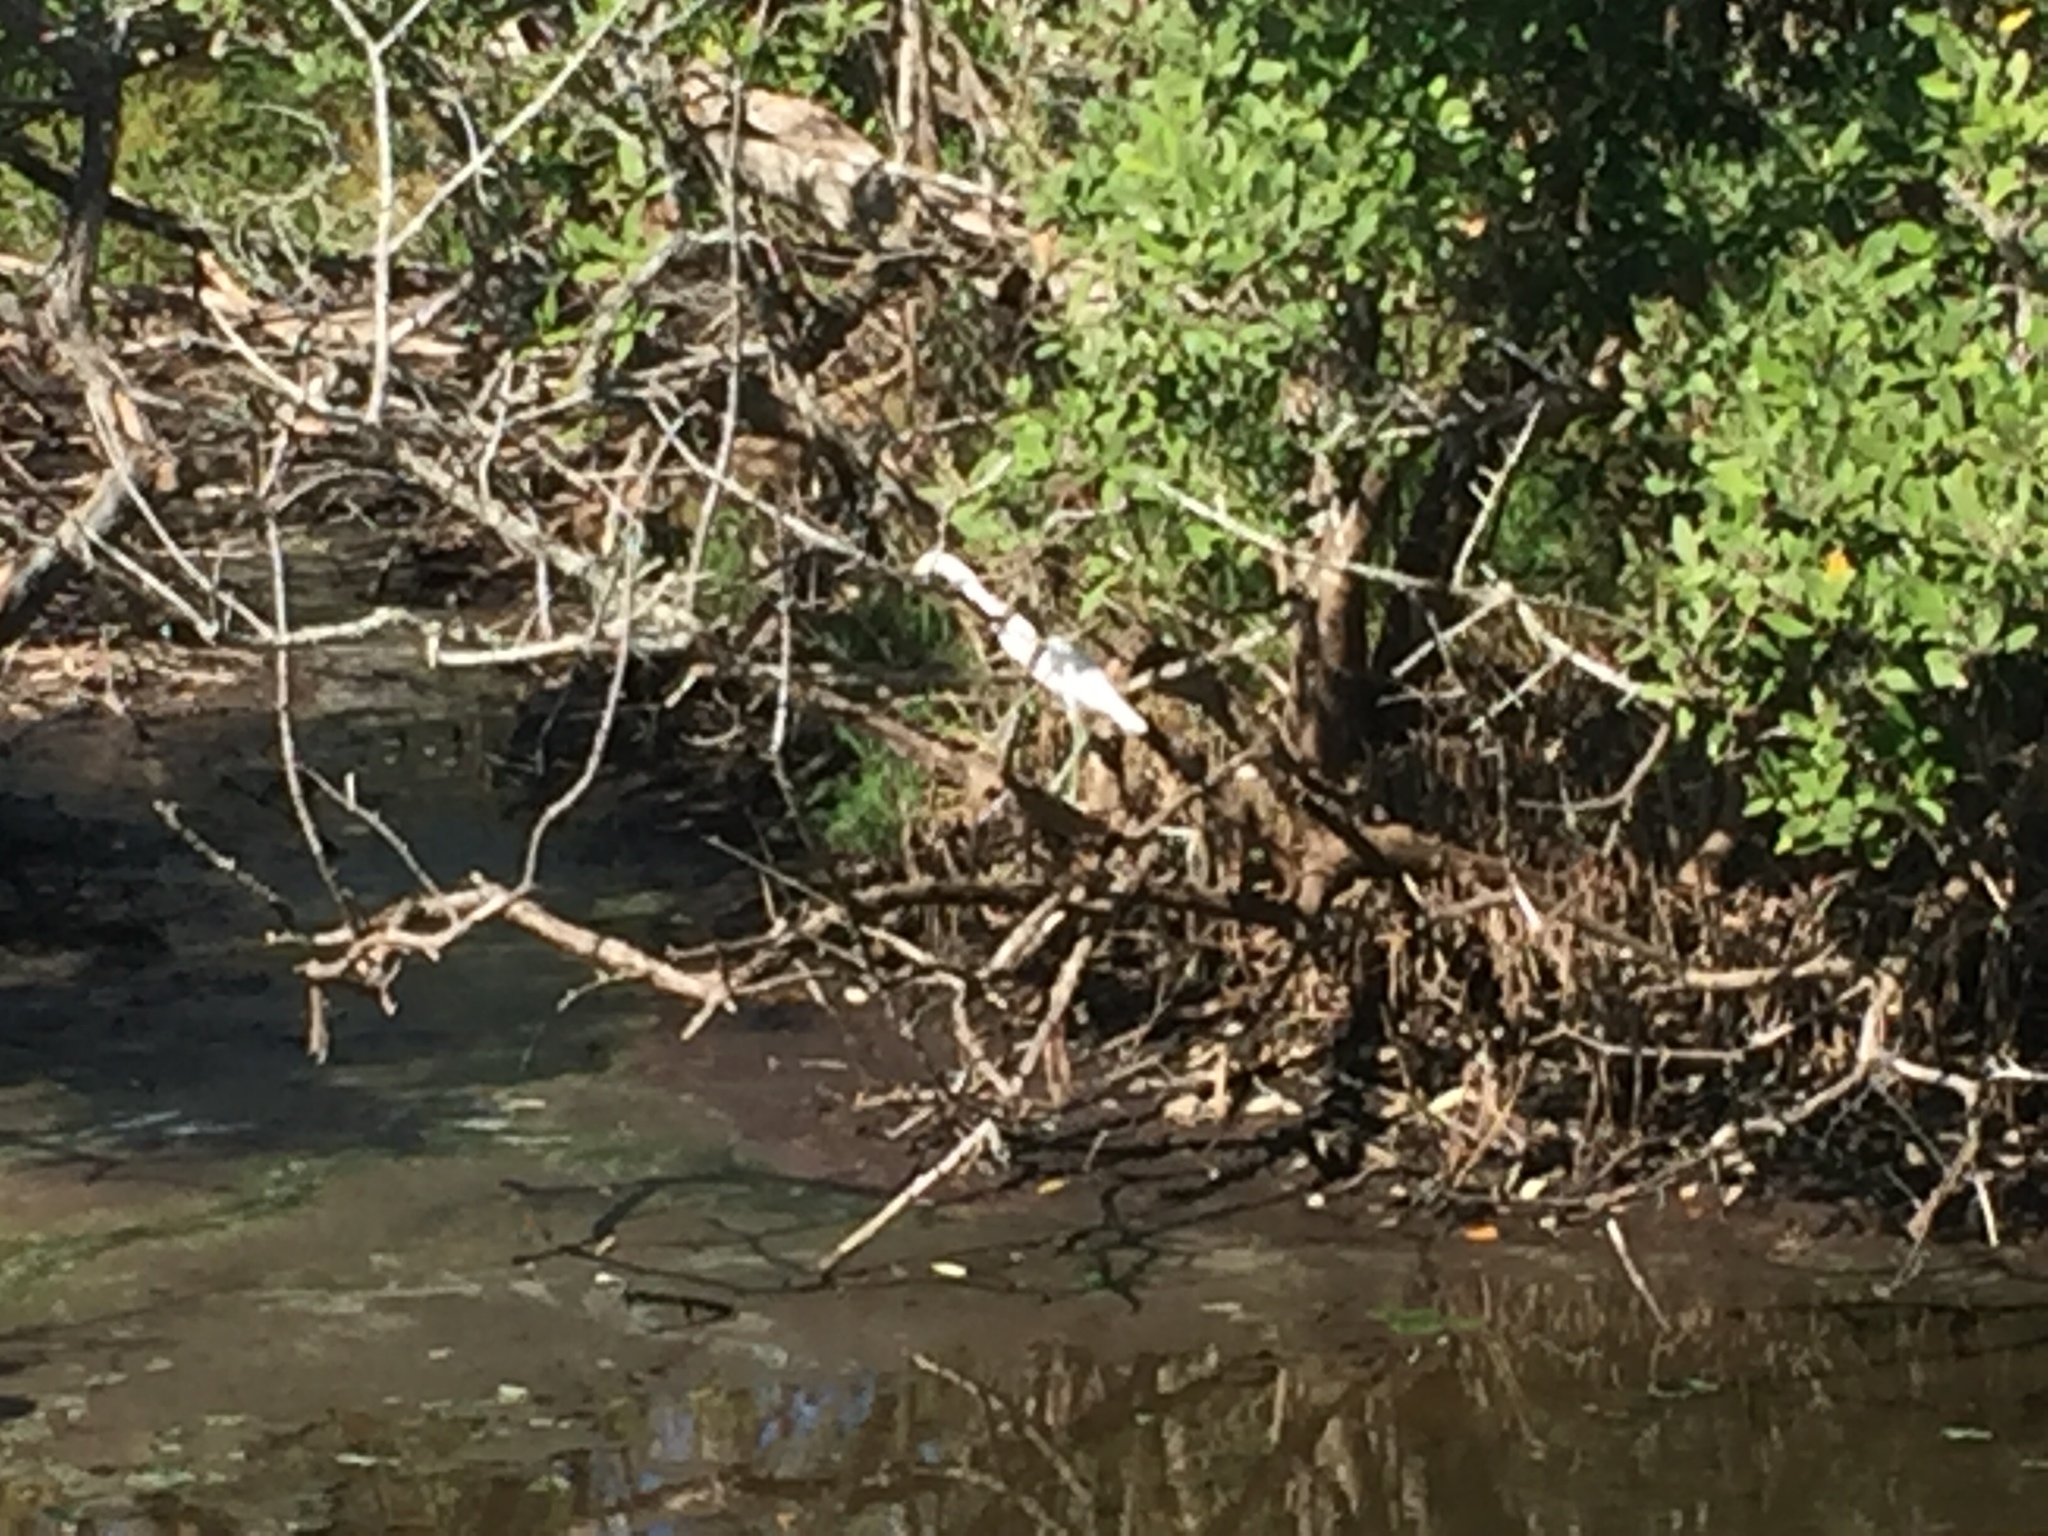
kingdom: Animalia
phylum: Chordata
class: Aves
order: Pelecaniformes
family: Ardeidae
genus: Egretta
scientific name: Egretta caerulea
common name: Little blue heron
